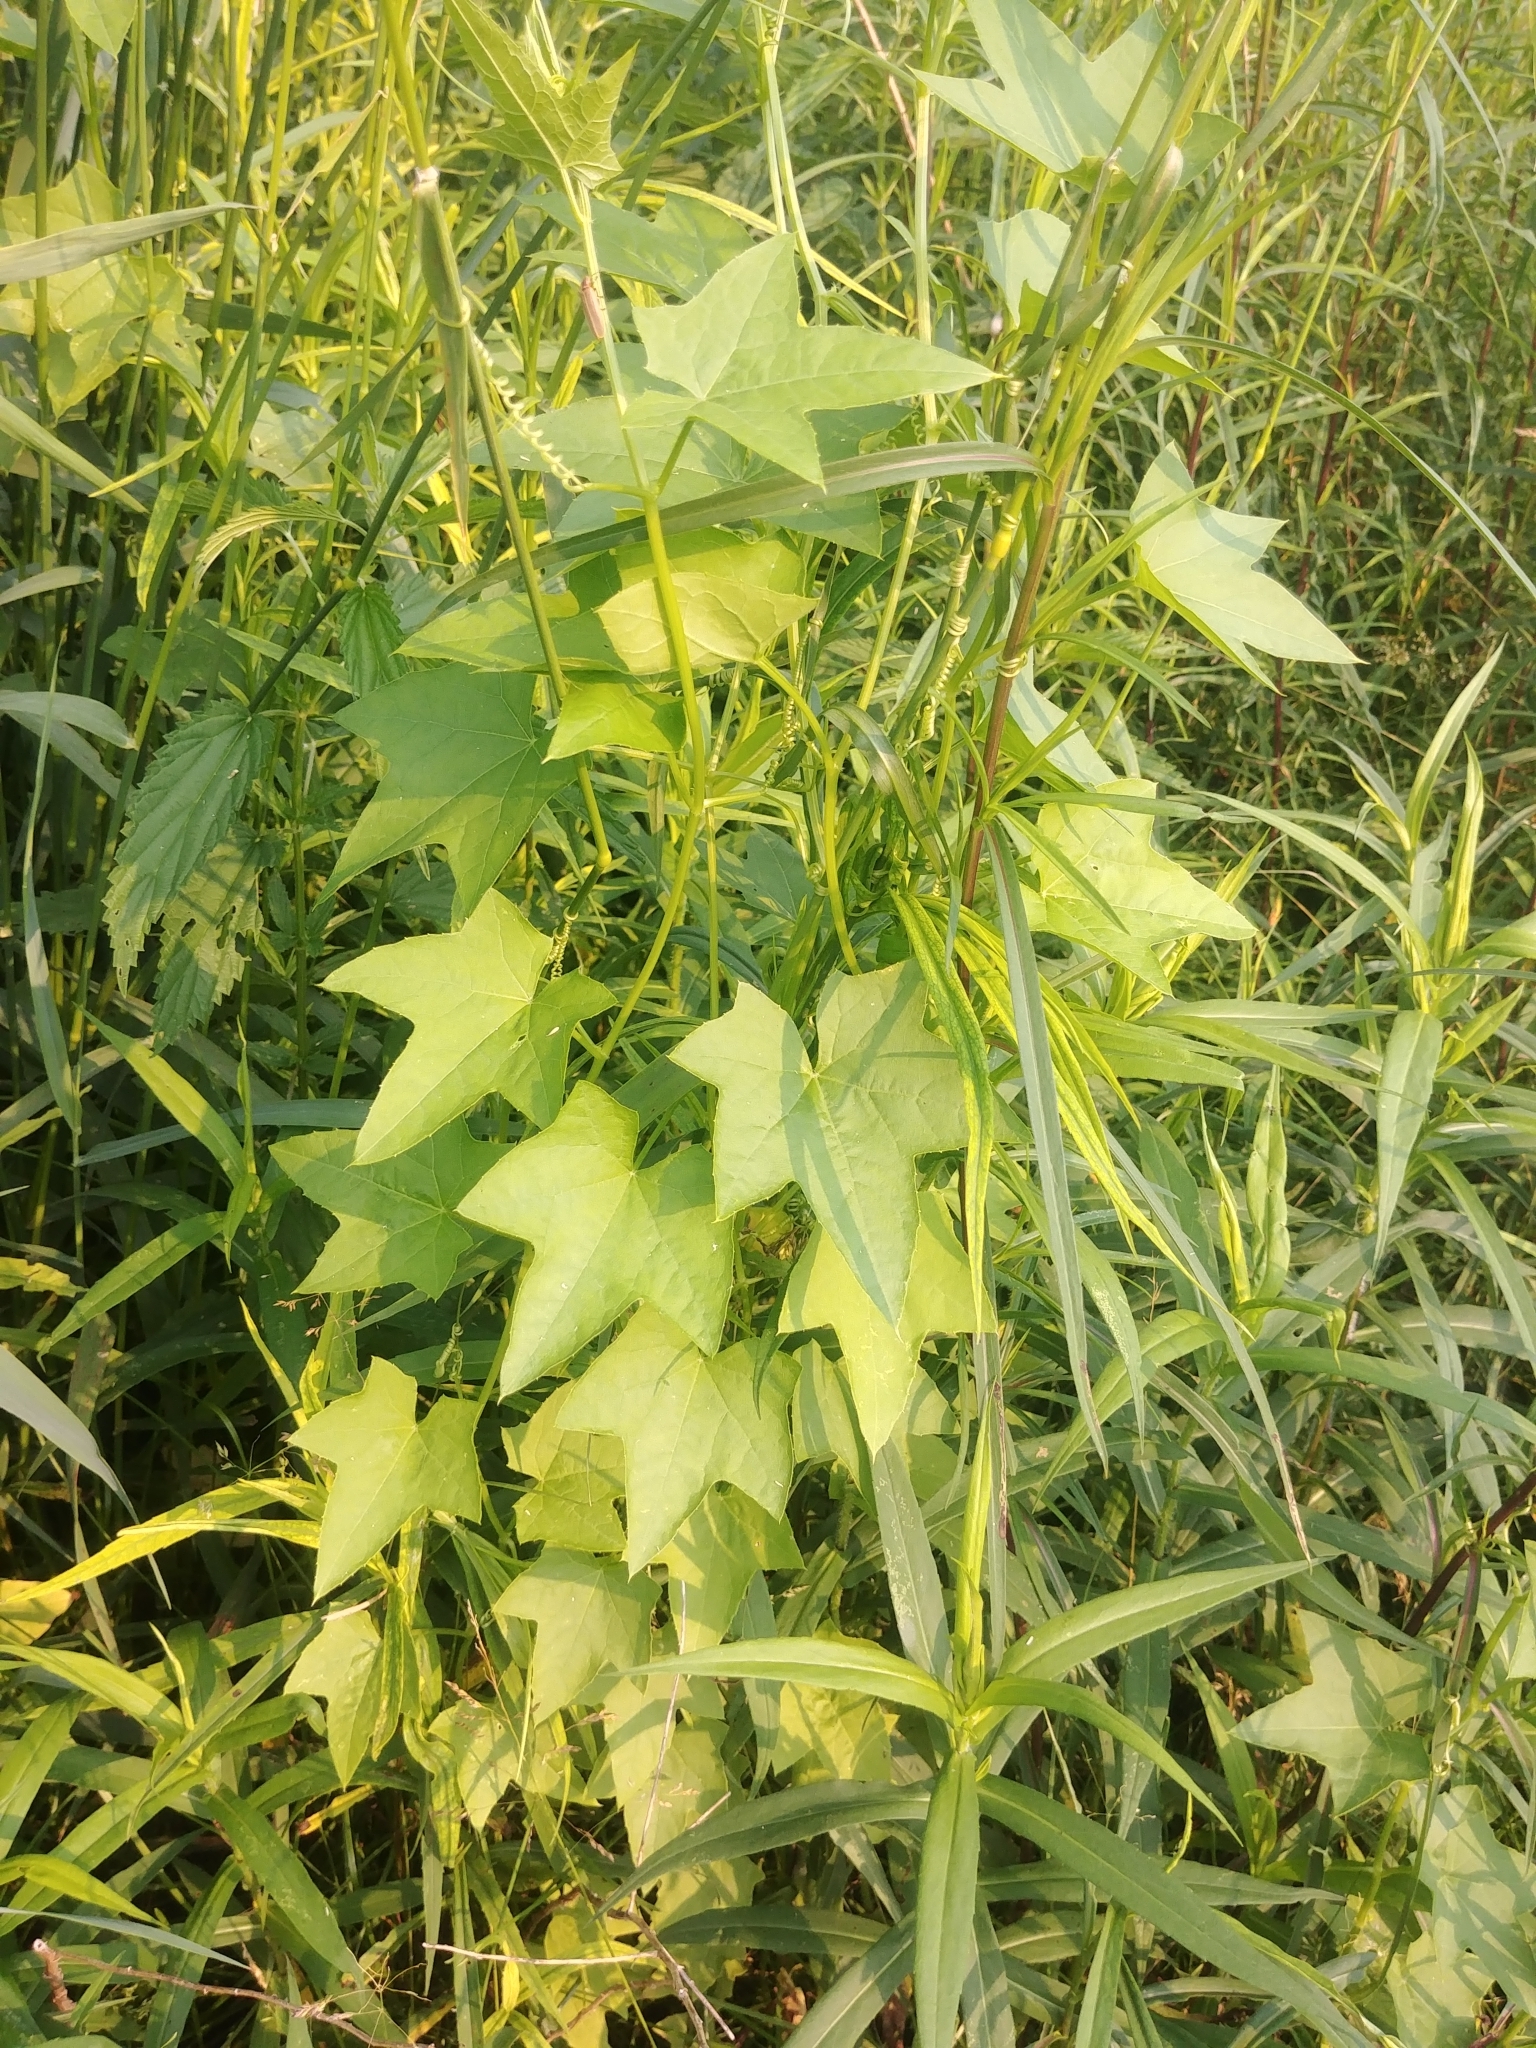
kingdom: Plantae
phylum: Tracheophyta
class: Magnoliopsida
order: Cucurbitales
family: Cucurbitaceae
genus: Echinocystis
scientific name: Echinocystis lobata
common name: Wild cucumber
